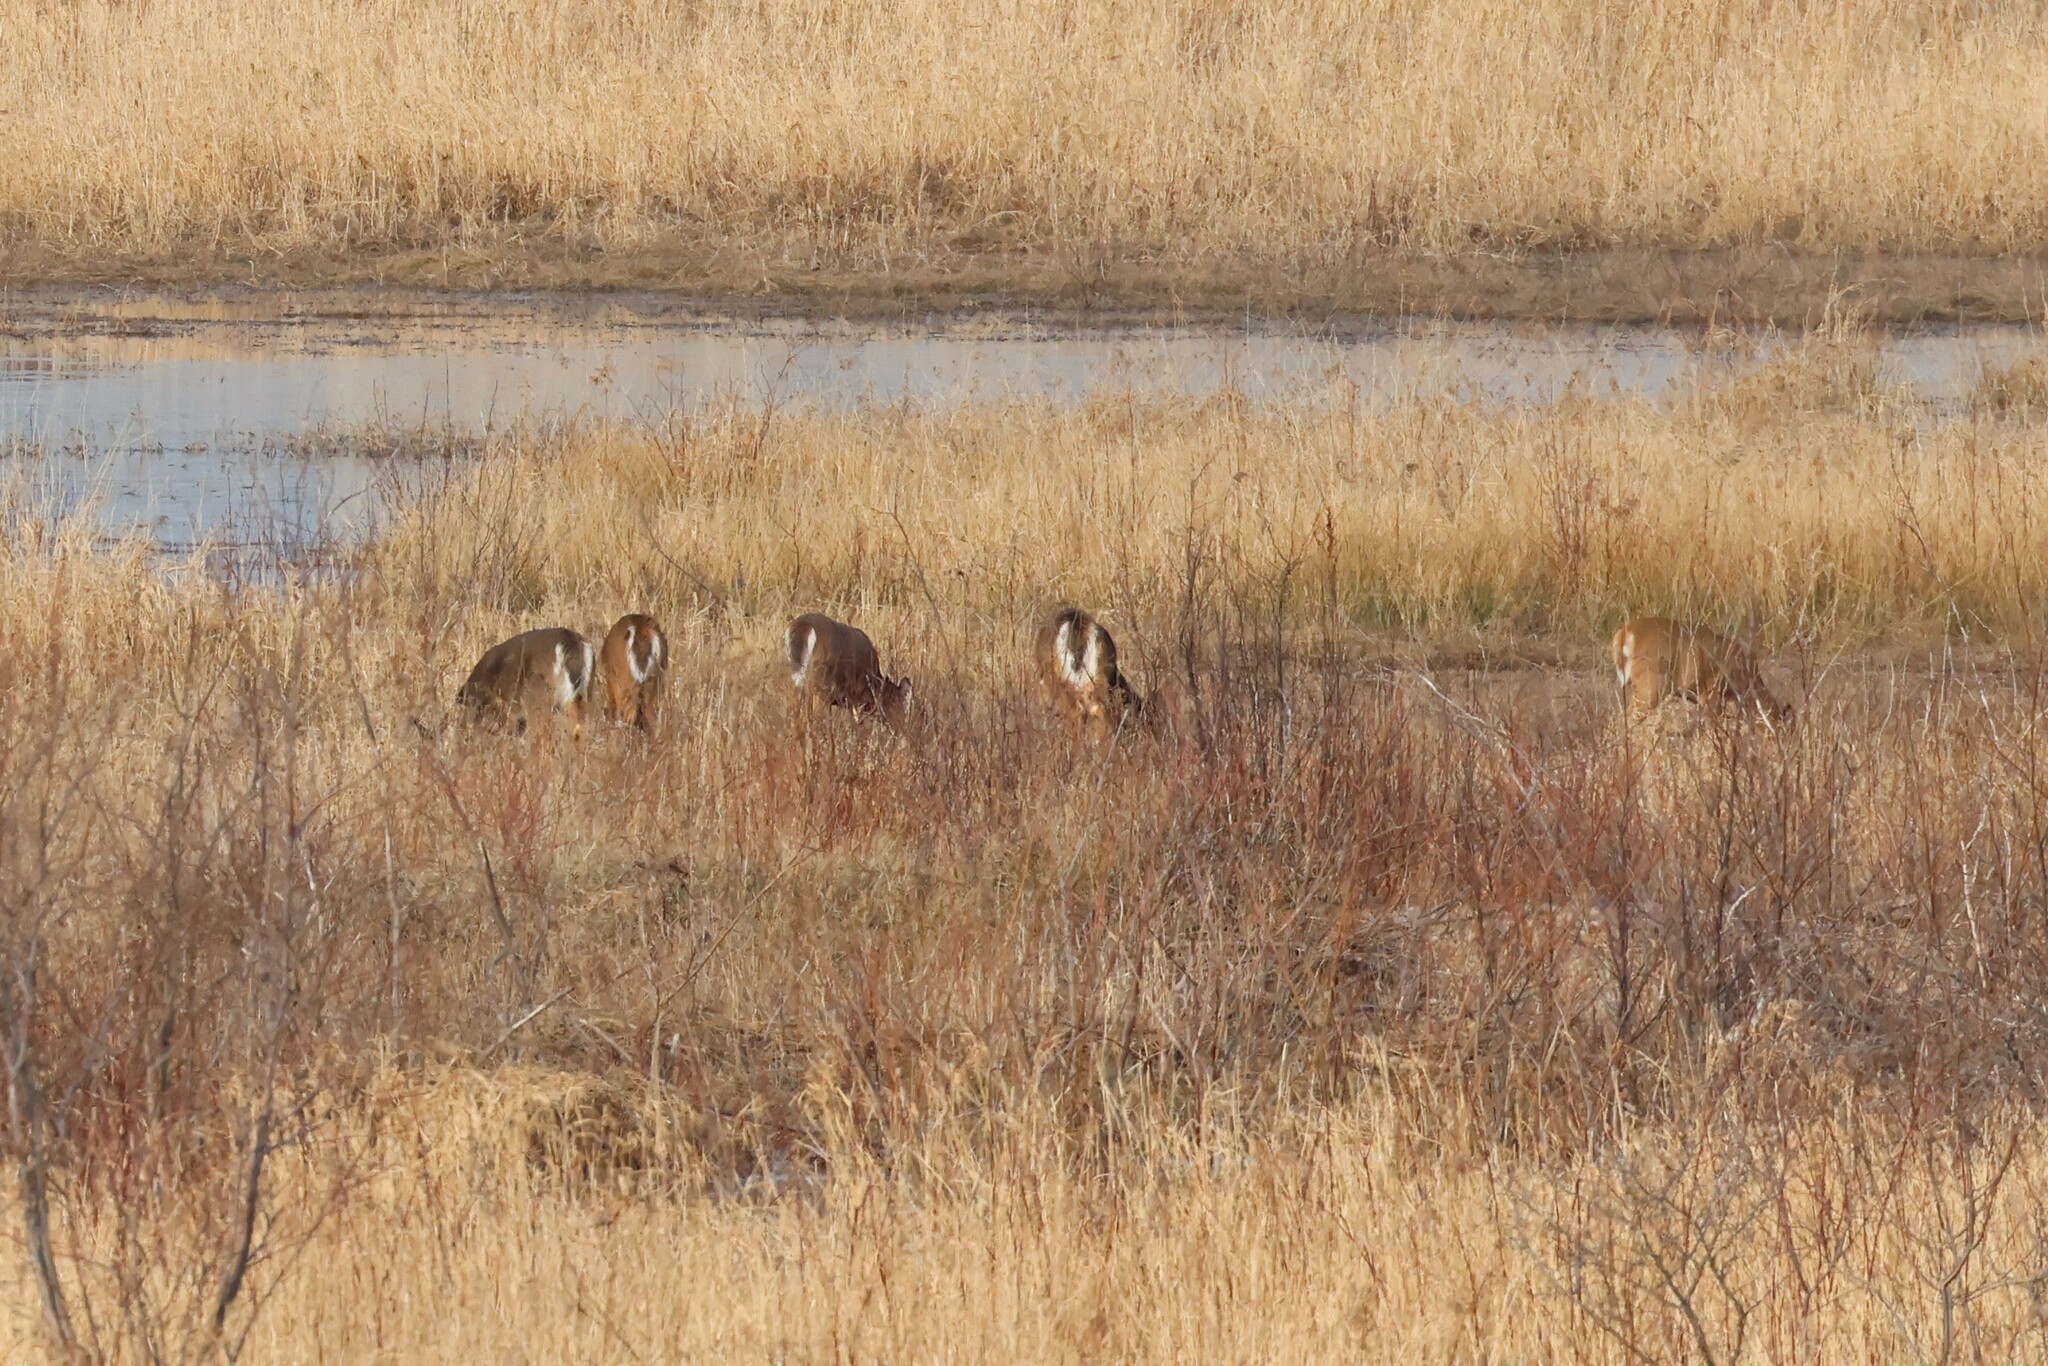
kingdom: Animalia
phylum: Chordata
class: Mammalia
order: Artiodactyla
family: Cervidae
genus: Odocoileus
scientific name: Odocoileus virginianus
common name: White-tailed deer
